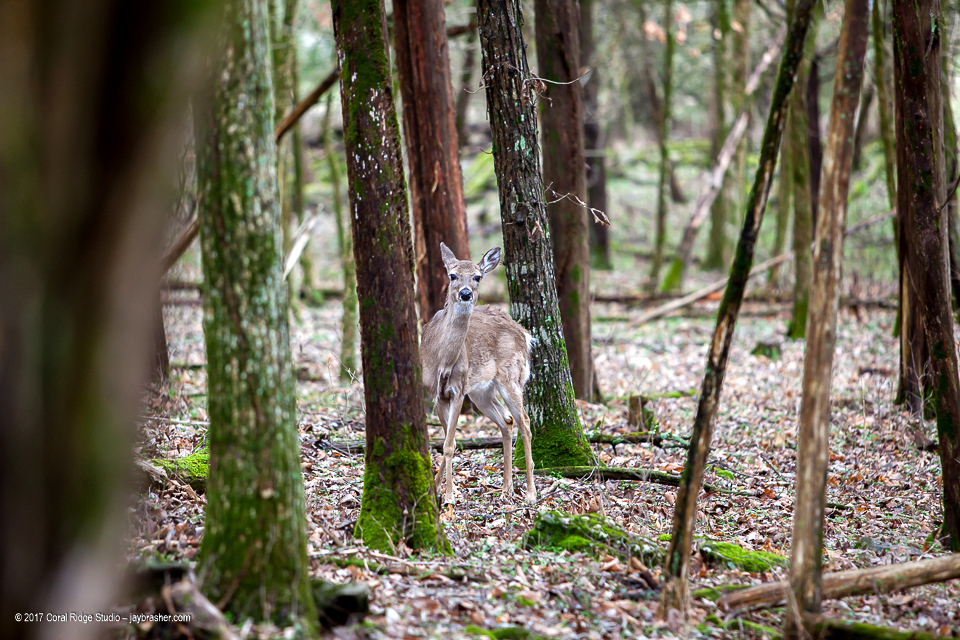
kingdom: Animalia
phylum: Chordata
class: Mammalia
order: Artiodactyla
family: Cervidae
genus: Odocoileus
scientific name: Odocoileus virginianus
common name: White-tailed deer
